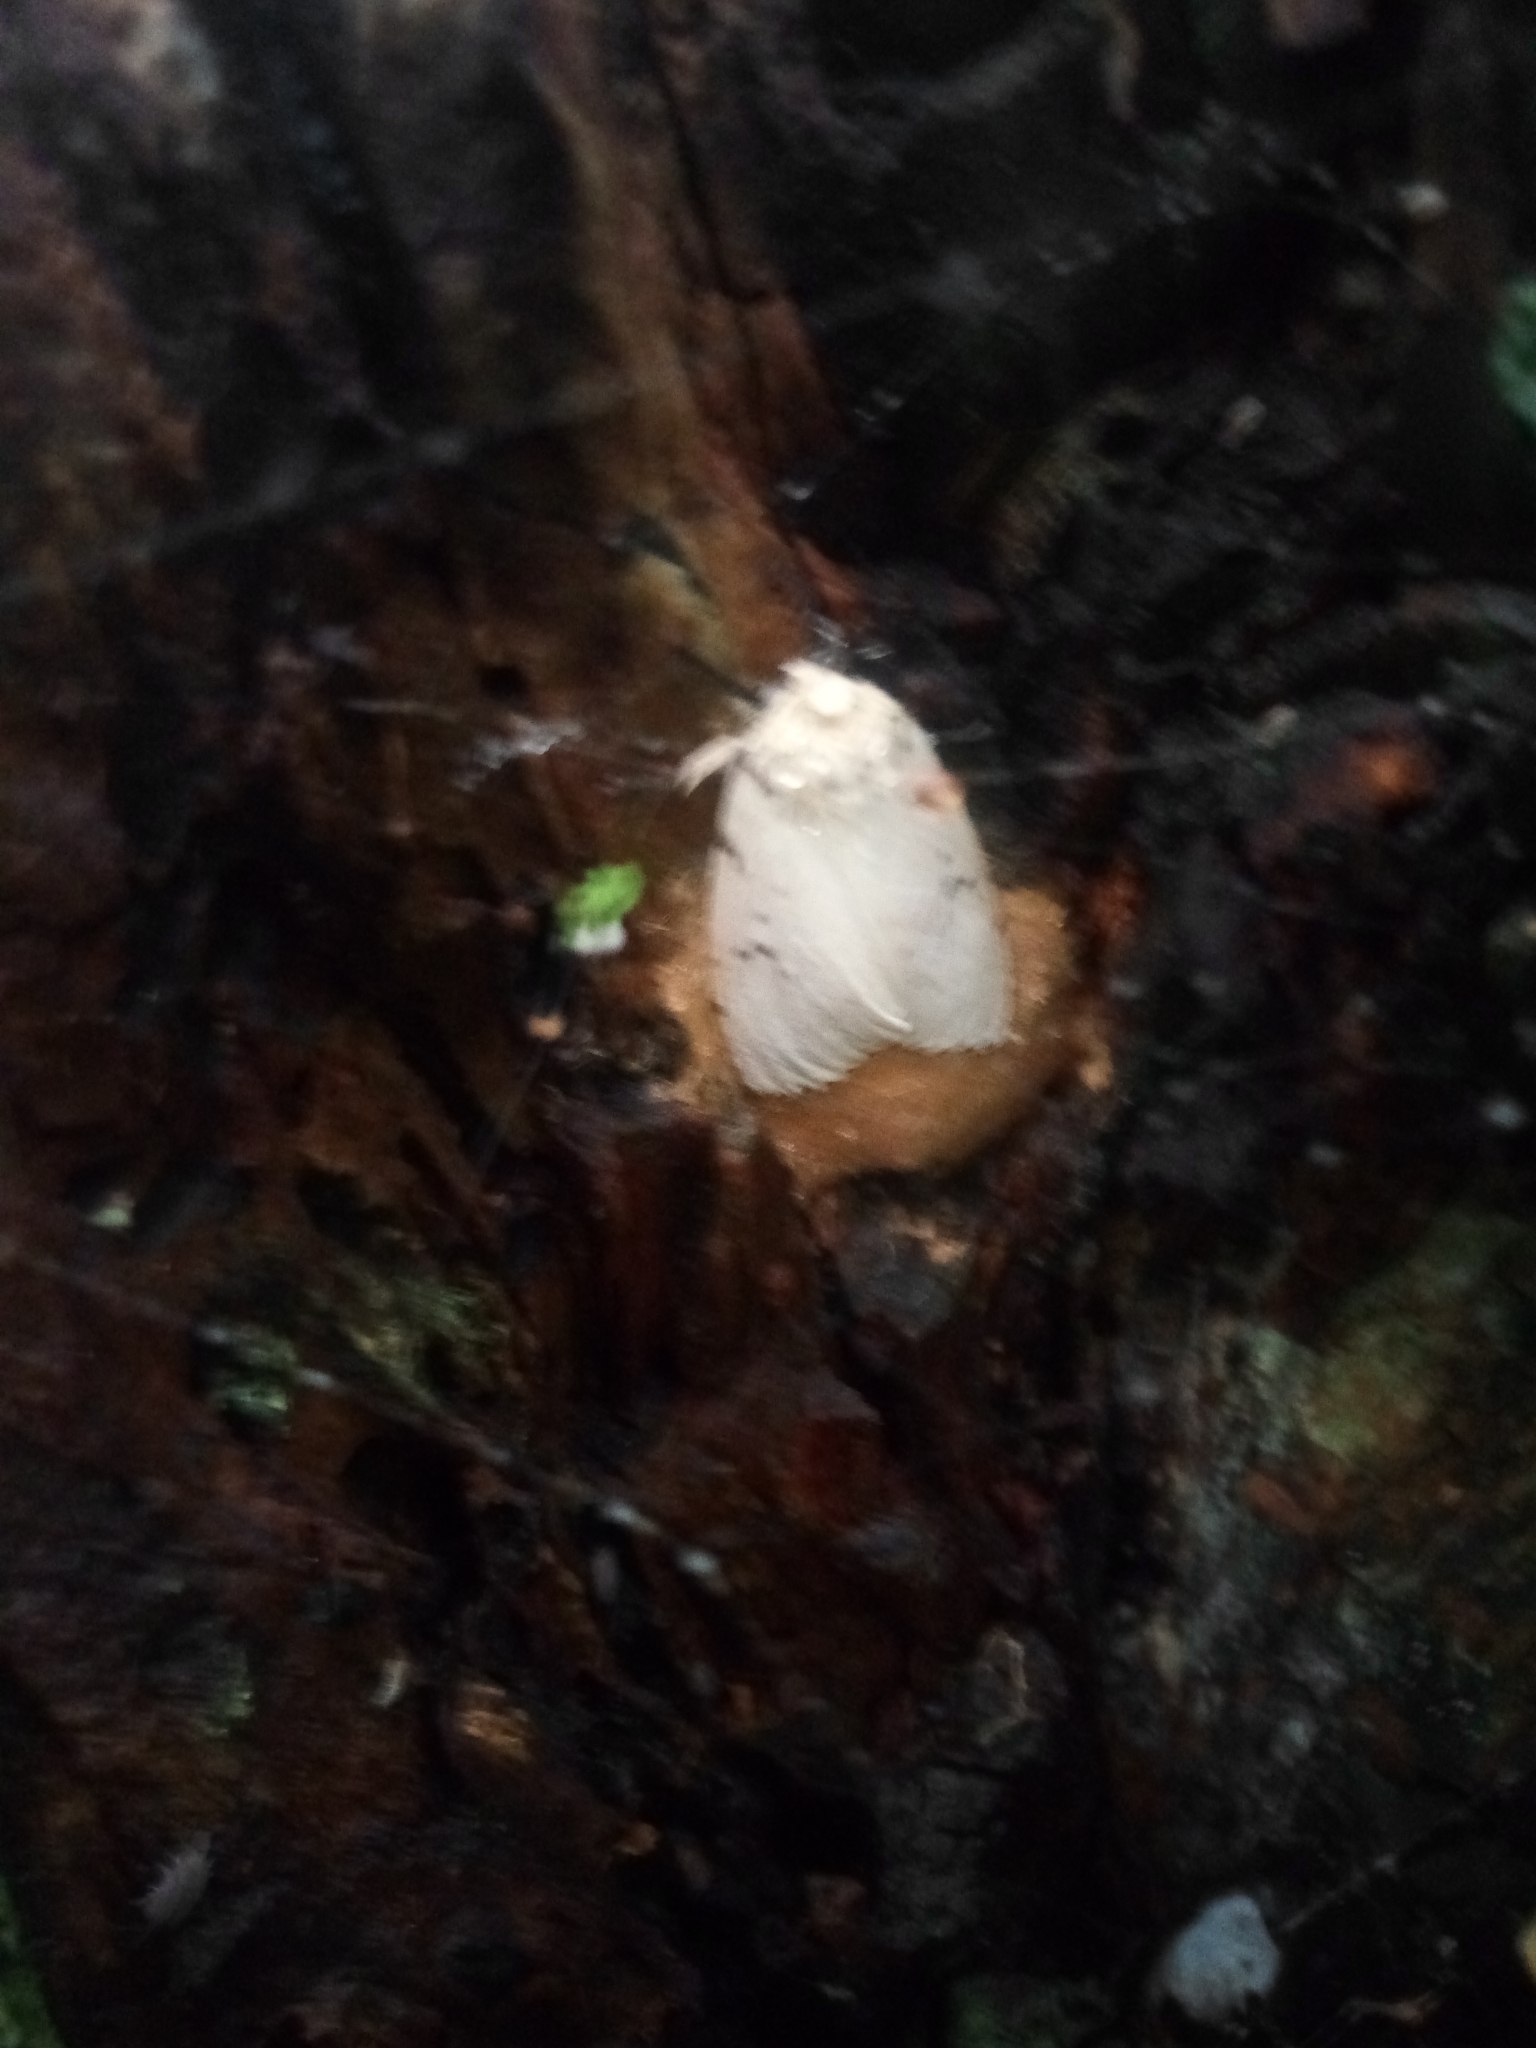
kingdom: Animalia
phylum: Arthropoda
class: Insecta
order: Lepidoptera
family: Erebidae
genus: Lymantria
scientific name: Lymantria dispar
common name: Gypsy moth
